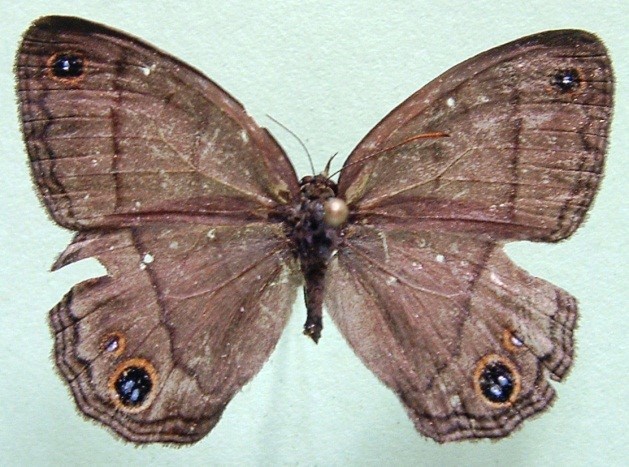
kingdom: Animalia
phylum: Arthropoda
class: Insecta
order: Lepidoptera
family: Nymphalidae
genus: Euptychia
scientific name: Euptychia Cissia pompilia
